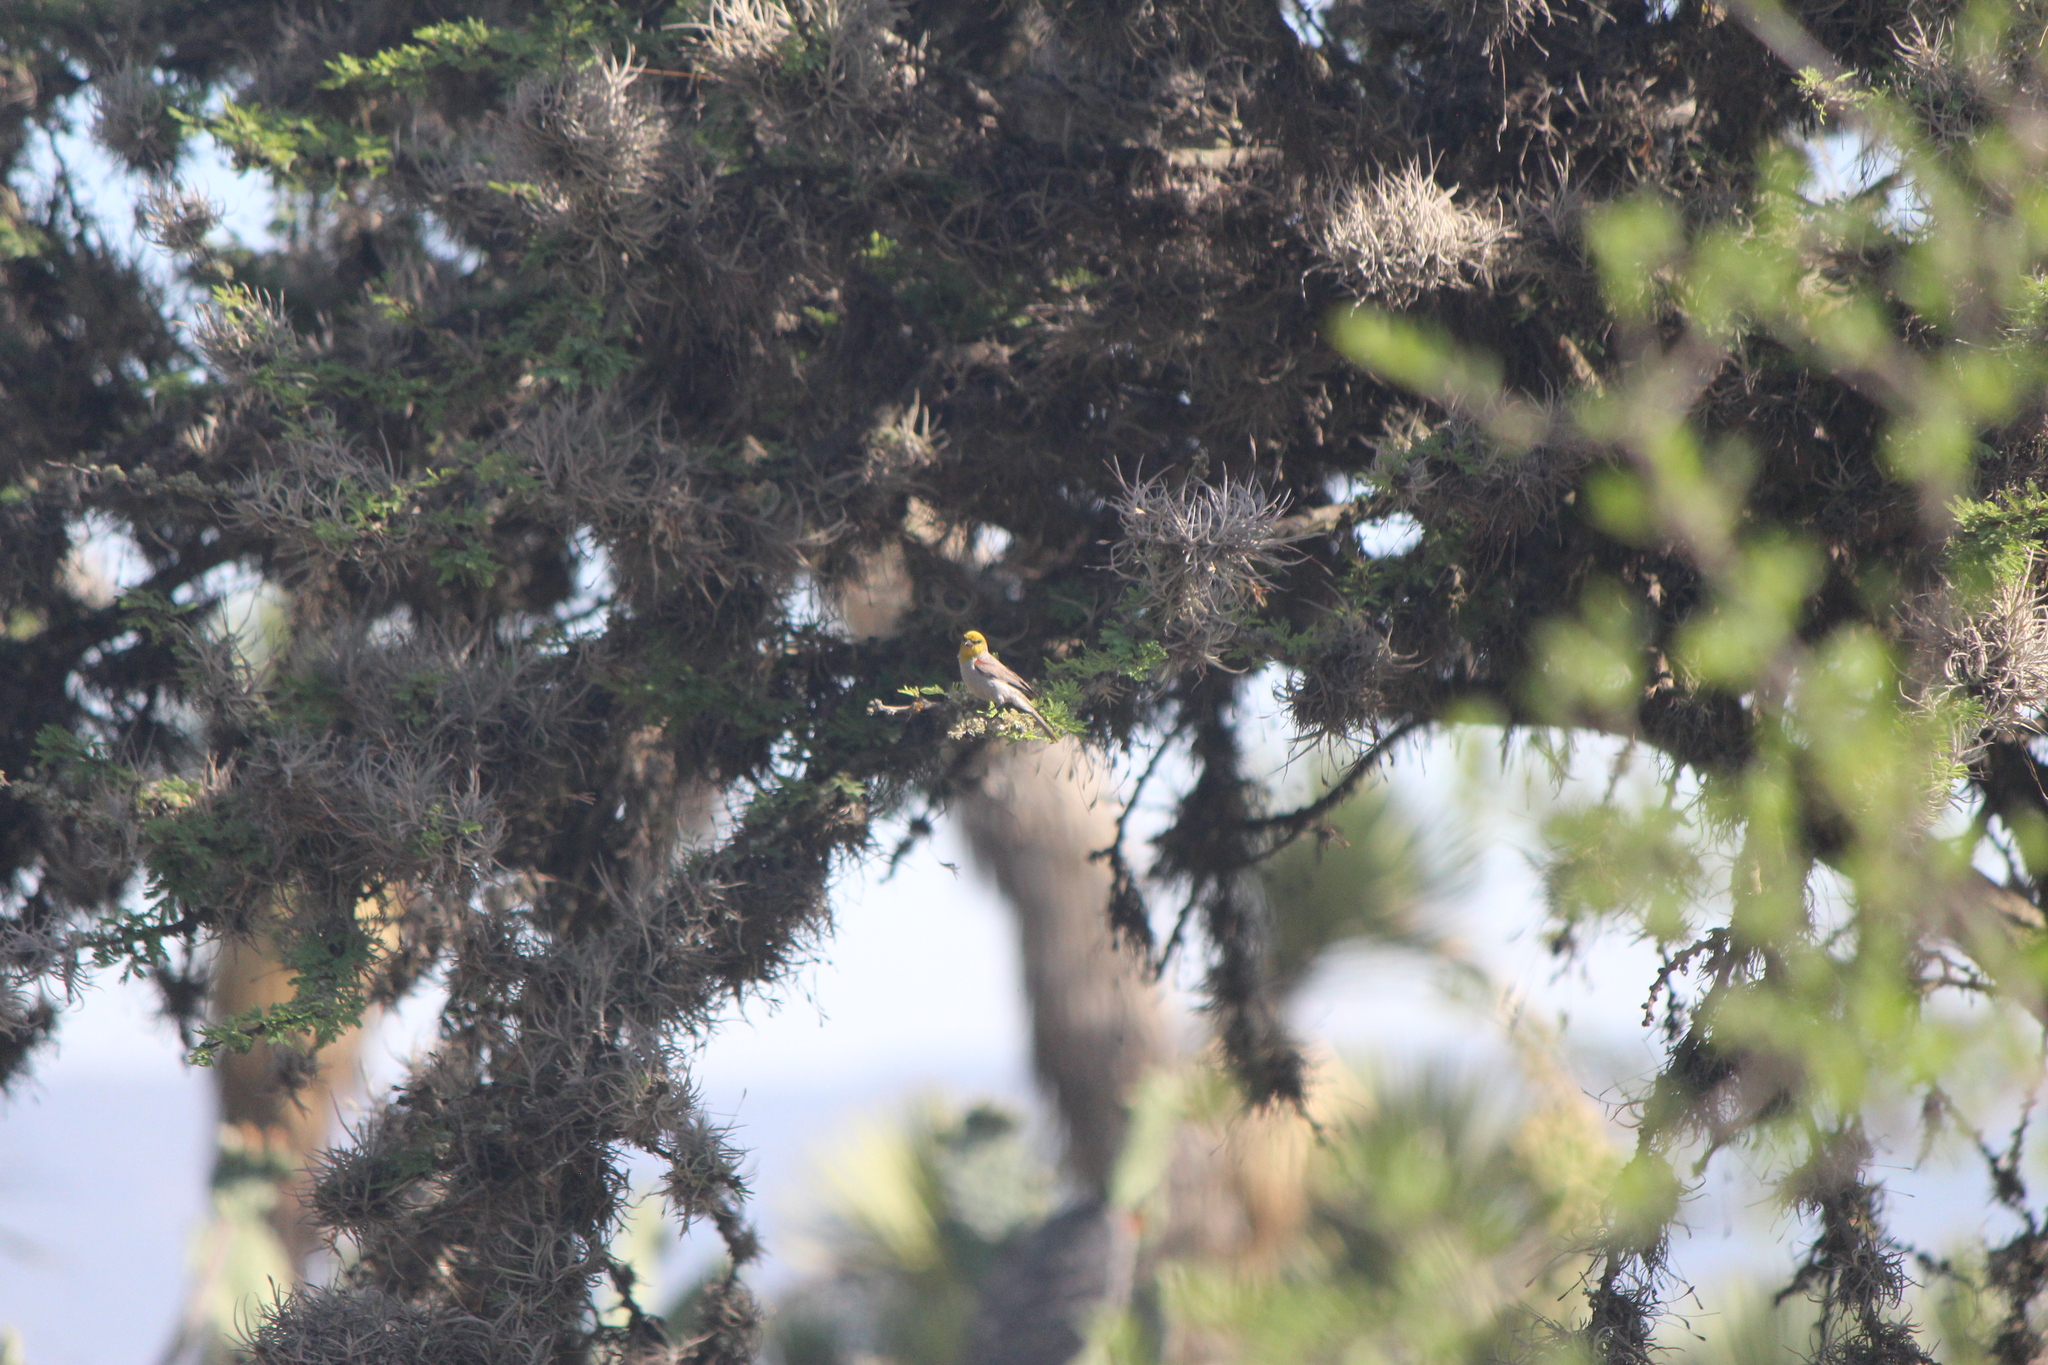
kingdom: Animalia
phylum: Chordata
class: Aves
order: Passeriformes
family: Remizidae
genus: Auriparus
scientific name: Auriparus flaviceps
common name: Verdin
